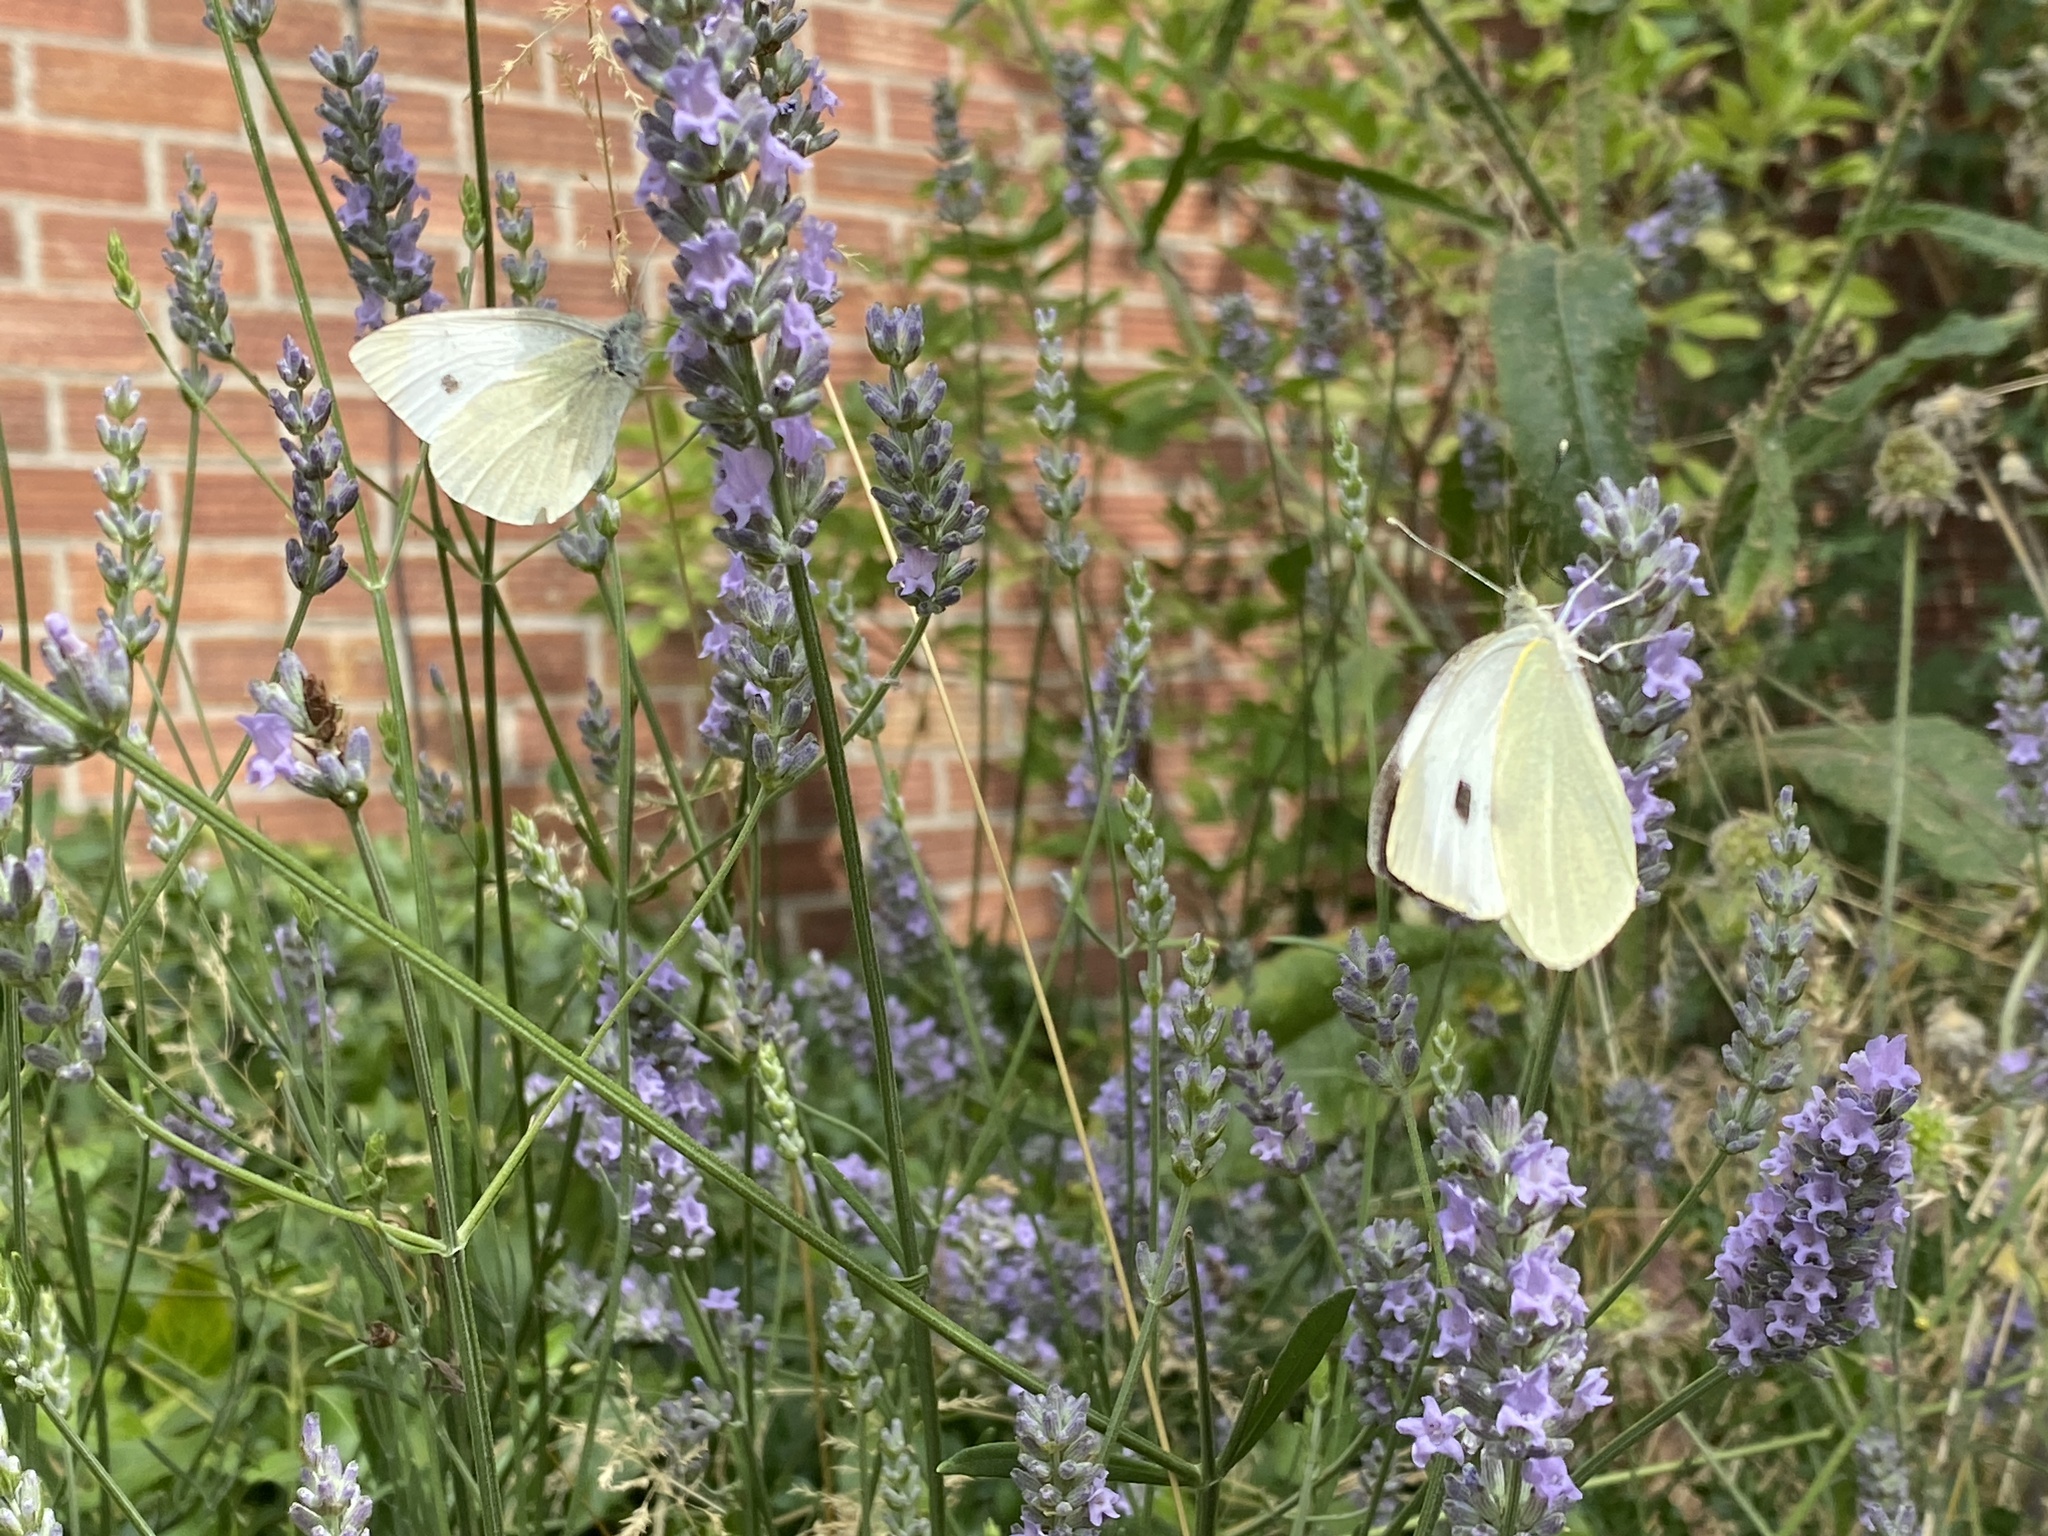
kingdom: Animalia
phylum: Arthropoda
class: Insecta
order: Lepidoptera
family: Pieridae
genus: Pieris
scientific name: Pieris brassicae
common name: Large white
